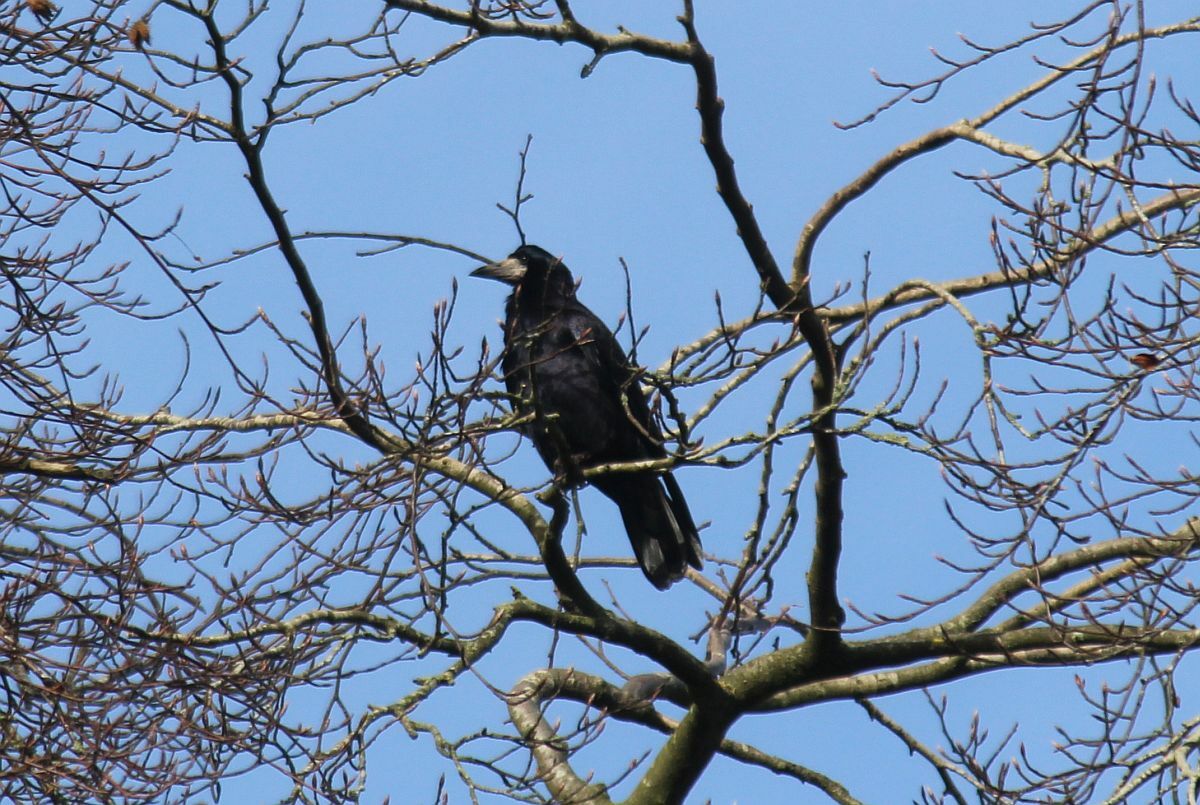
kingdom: Animalia
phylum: Chordata
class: Aves
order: Passeriformes
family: Corvidae
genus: Corvus
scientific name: Corvus frugilegus
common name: Rook
